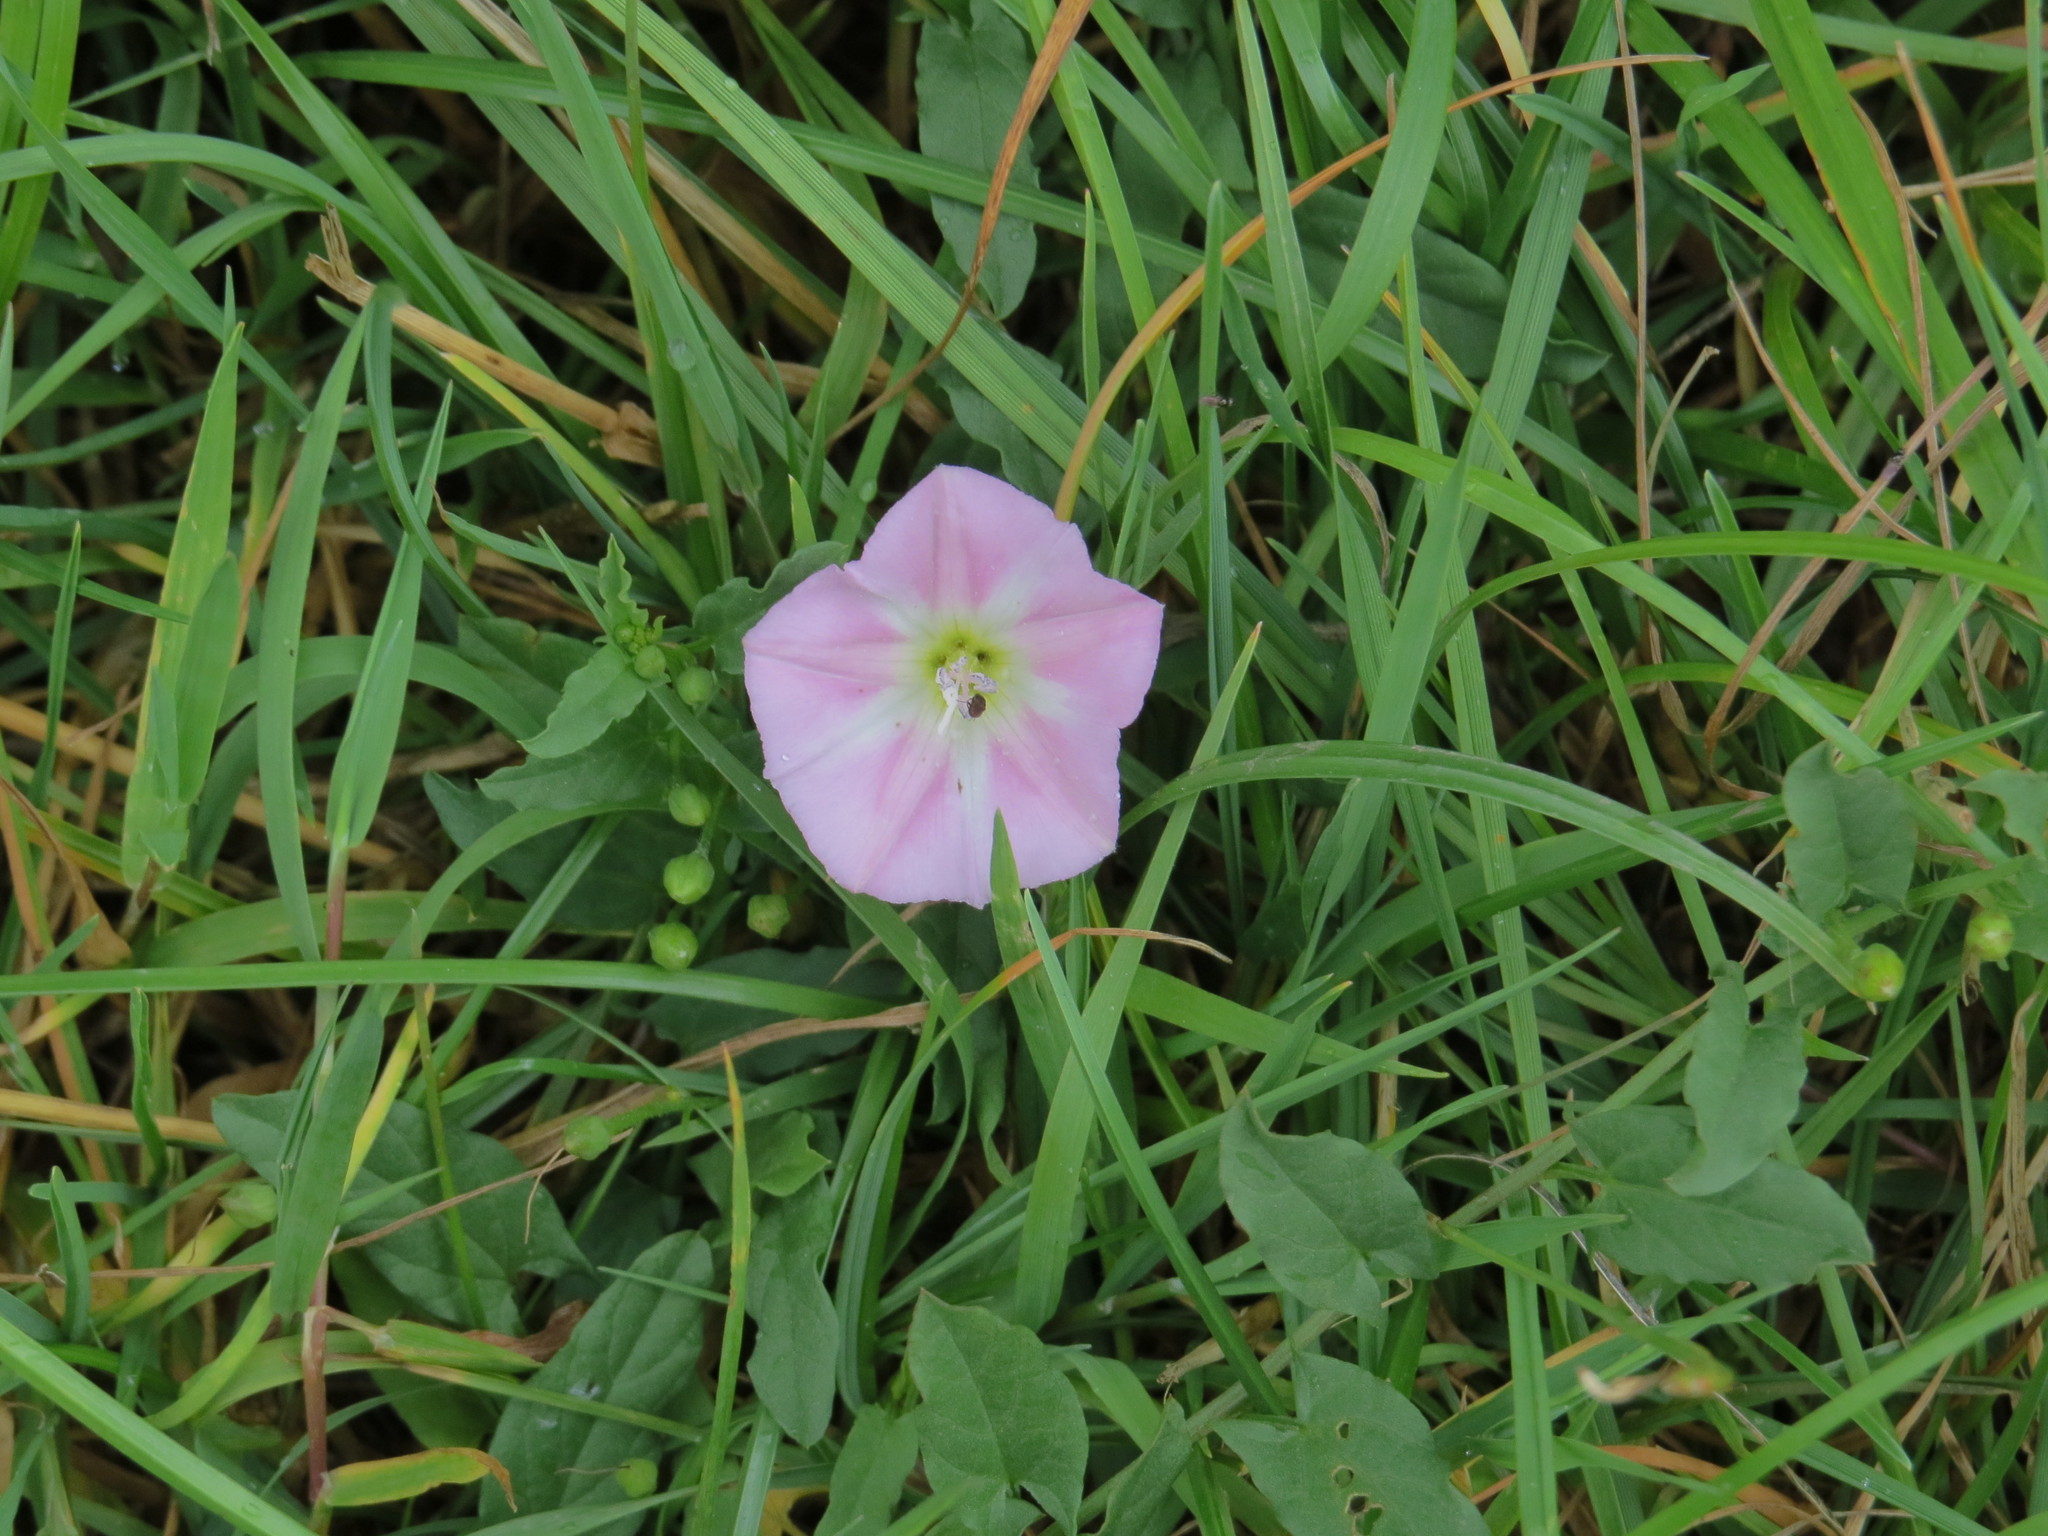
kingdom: Plantae
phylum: Tracheophyta
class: Magnoliopsida
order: Solanales
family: Convolvulaceae
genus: Convolvulus
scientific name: Convolvulus arvensis
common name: Field bindweed
